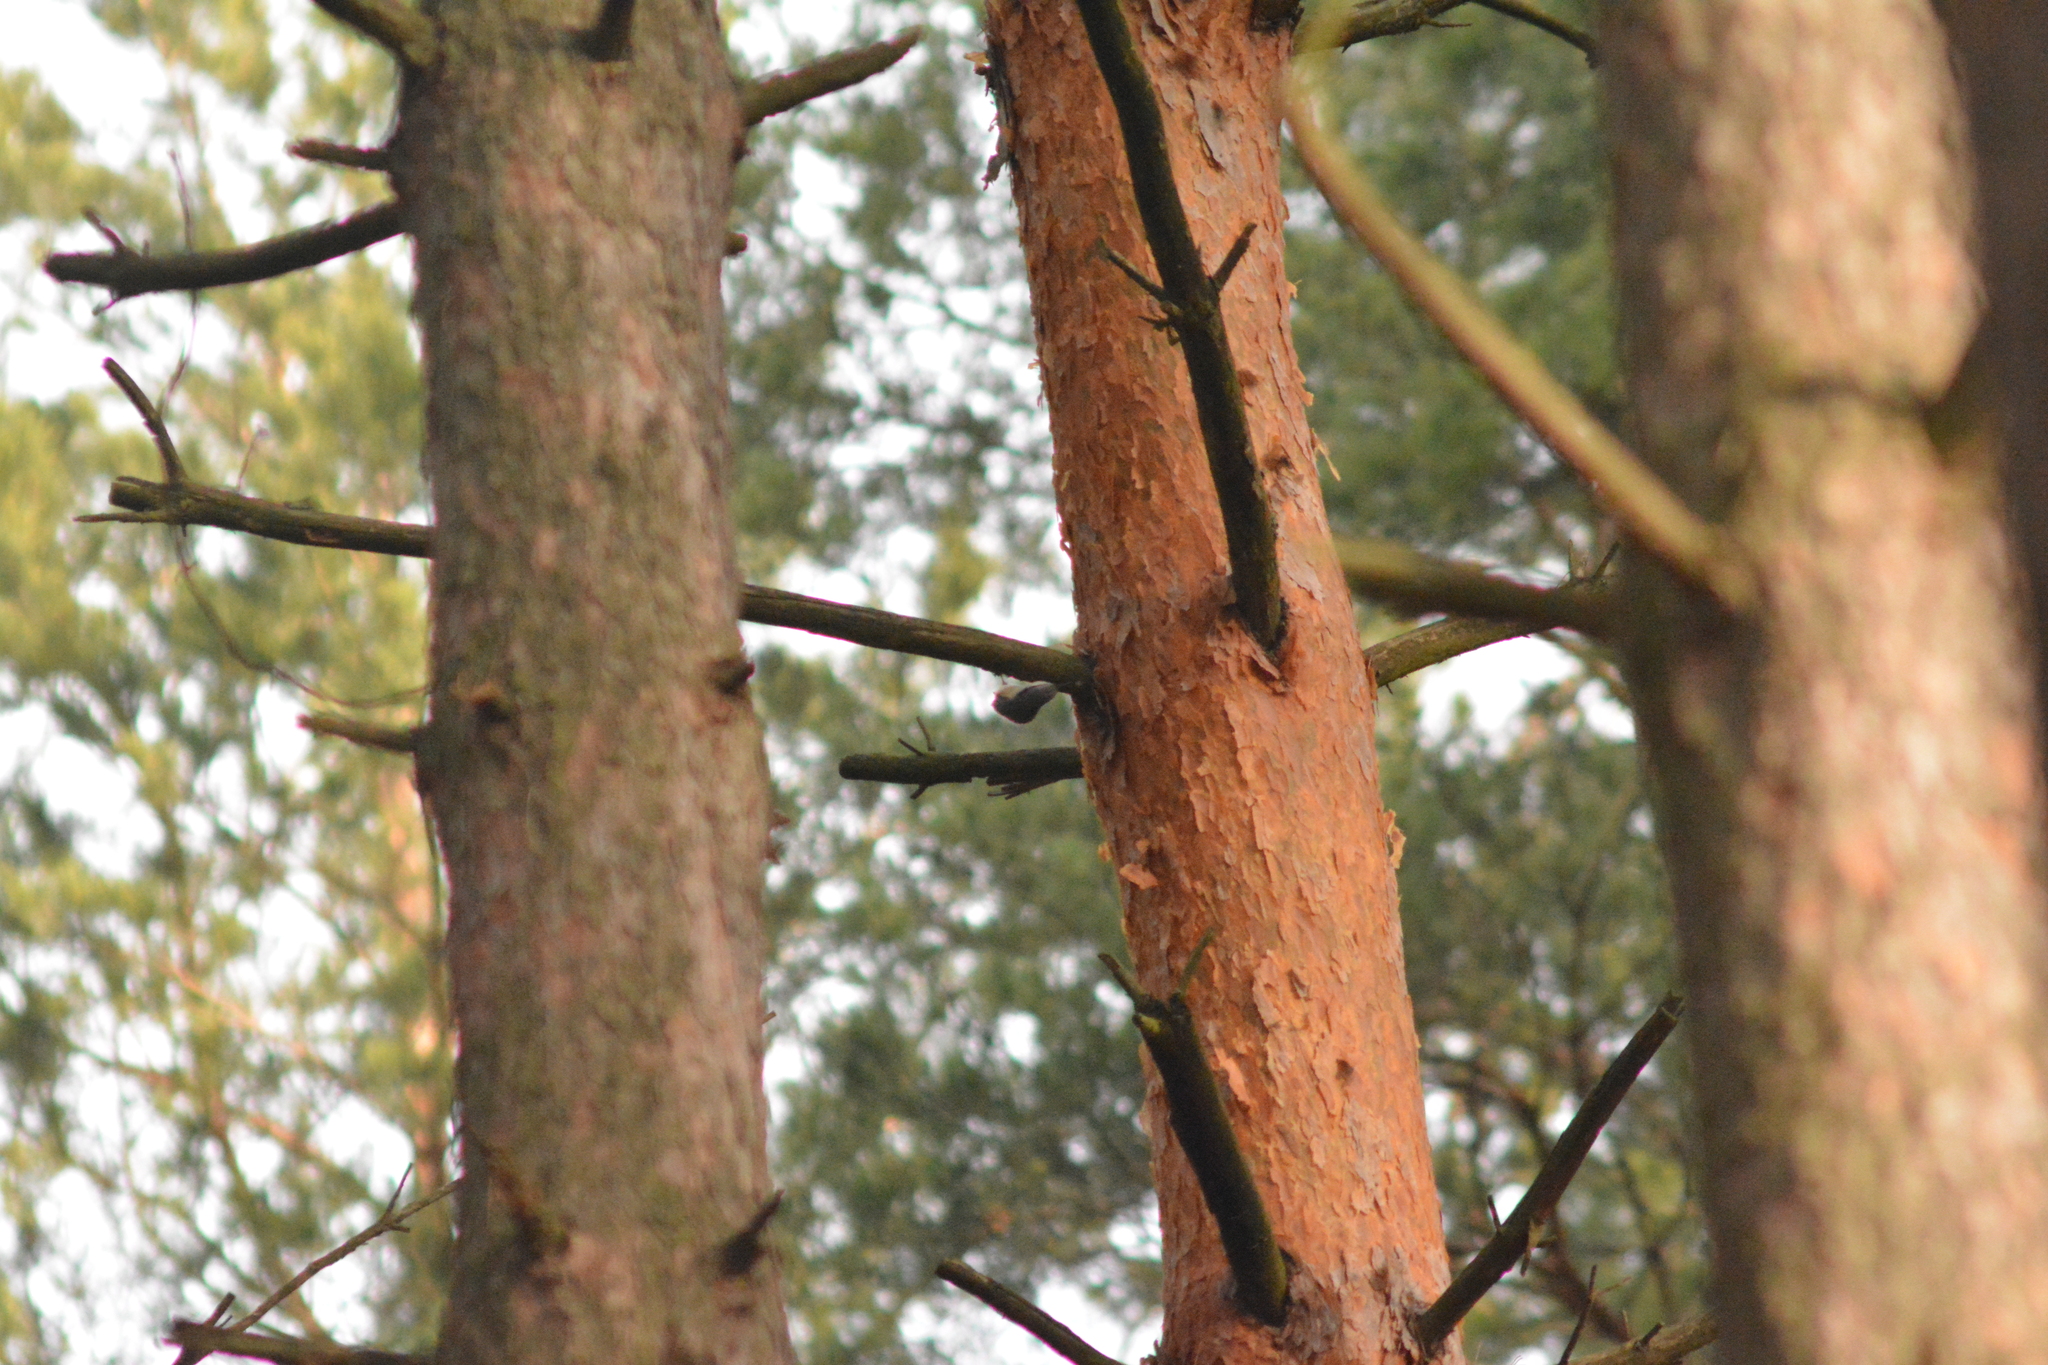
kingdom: Animalia
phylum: Chordata
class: Aves
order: Passeriformes
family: Sittidae
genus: Sitta
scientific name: Sitta europaea
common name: Eurasian nuthatch
